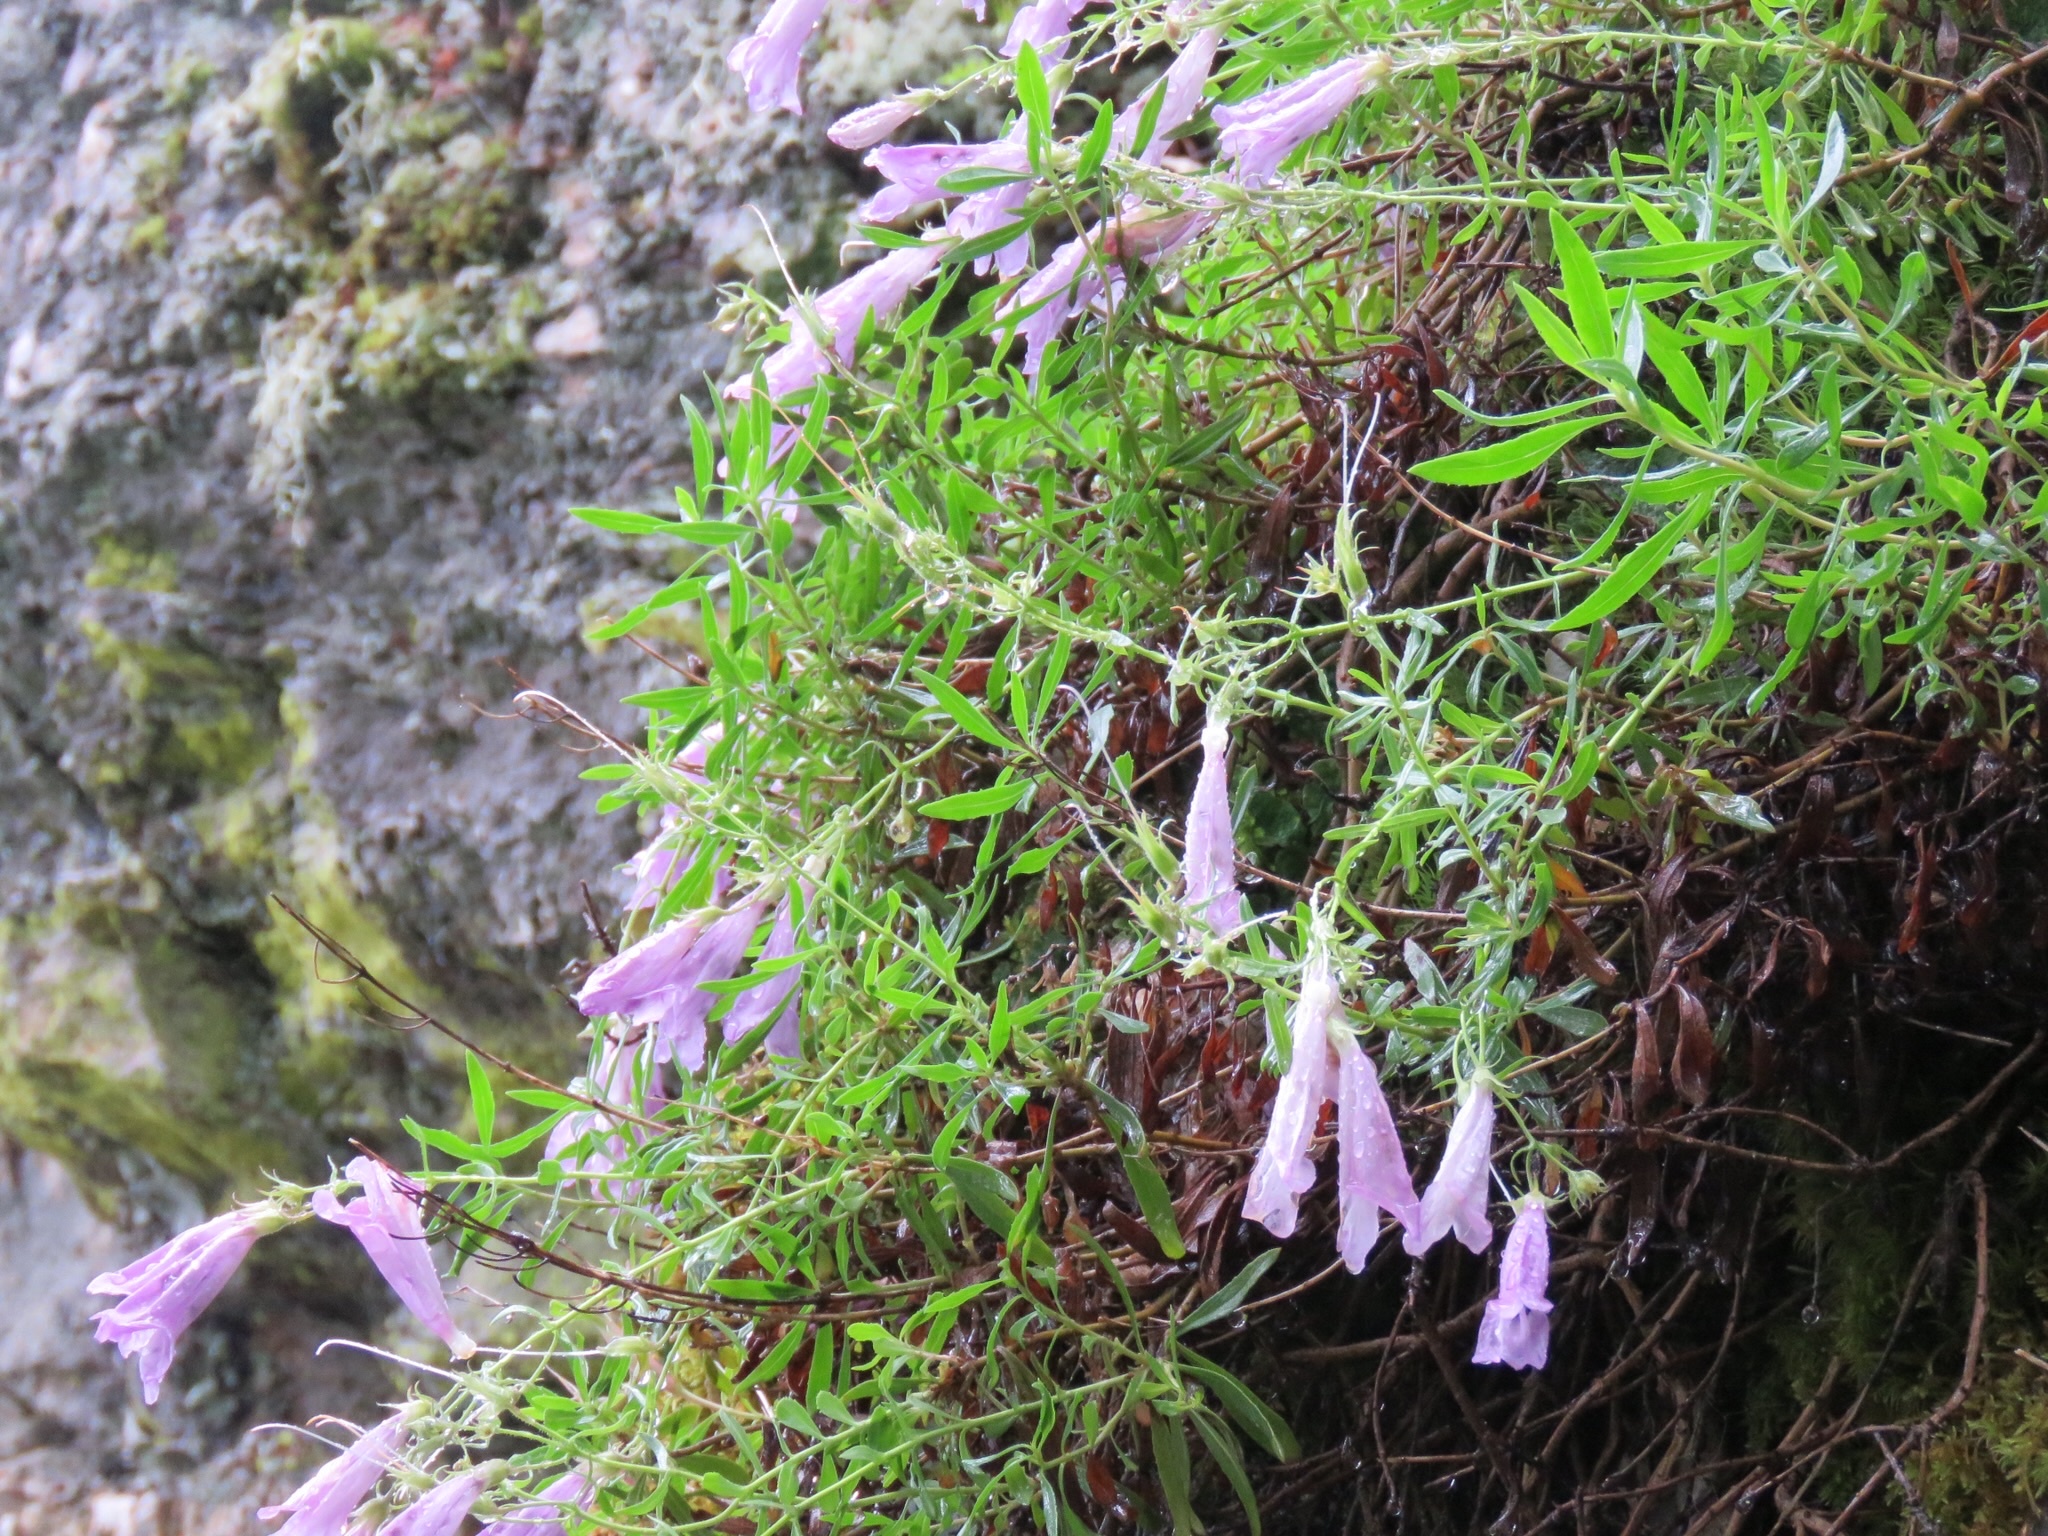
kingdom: Plantae
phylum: Tracheophyta
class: Magnoliopsida
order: Lamiales
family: Plantaginaceae
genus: Penstemon
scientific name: Penstemon fruticosus
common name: Bush penstemon
